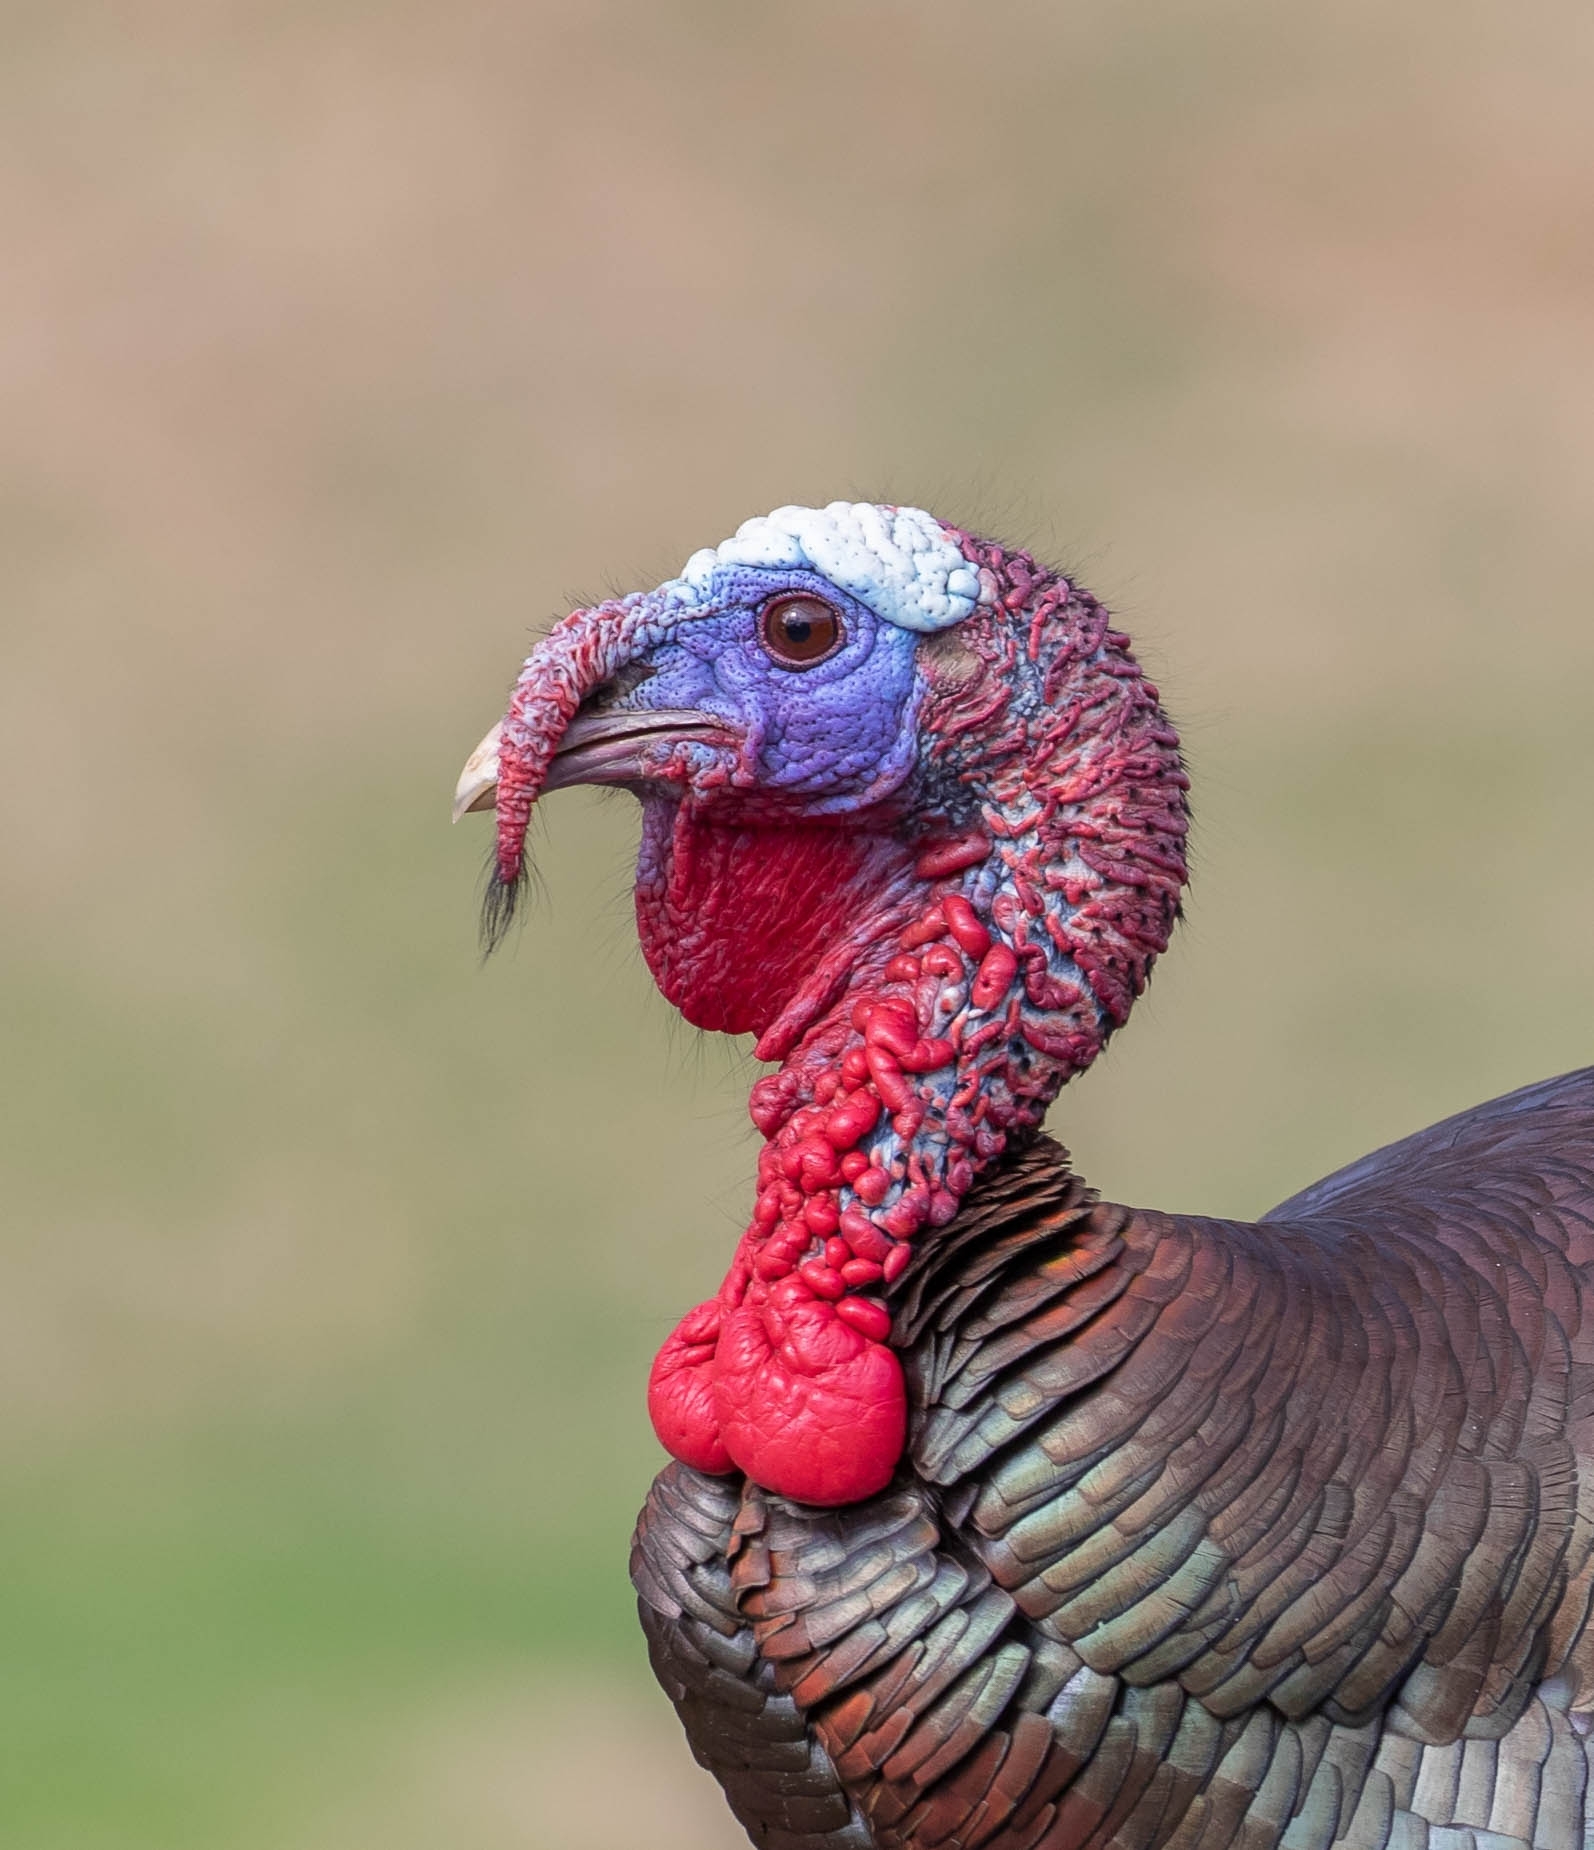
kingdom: Animalia
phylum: Chordata
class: Aves
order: Galliformes
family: Phasianidae
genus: Meleagris
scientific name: Meleagris gallopavo
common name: Wild turkey
